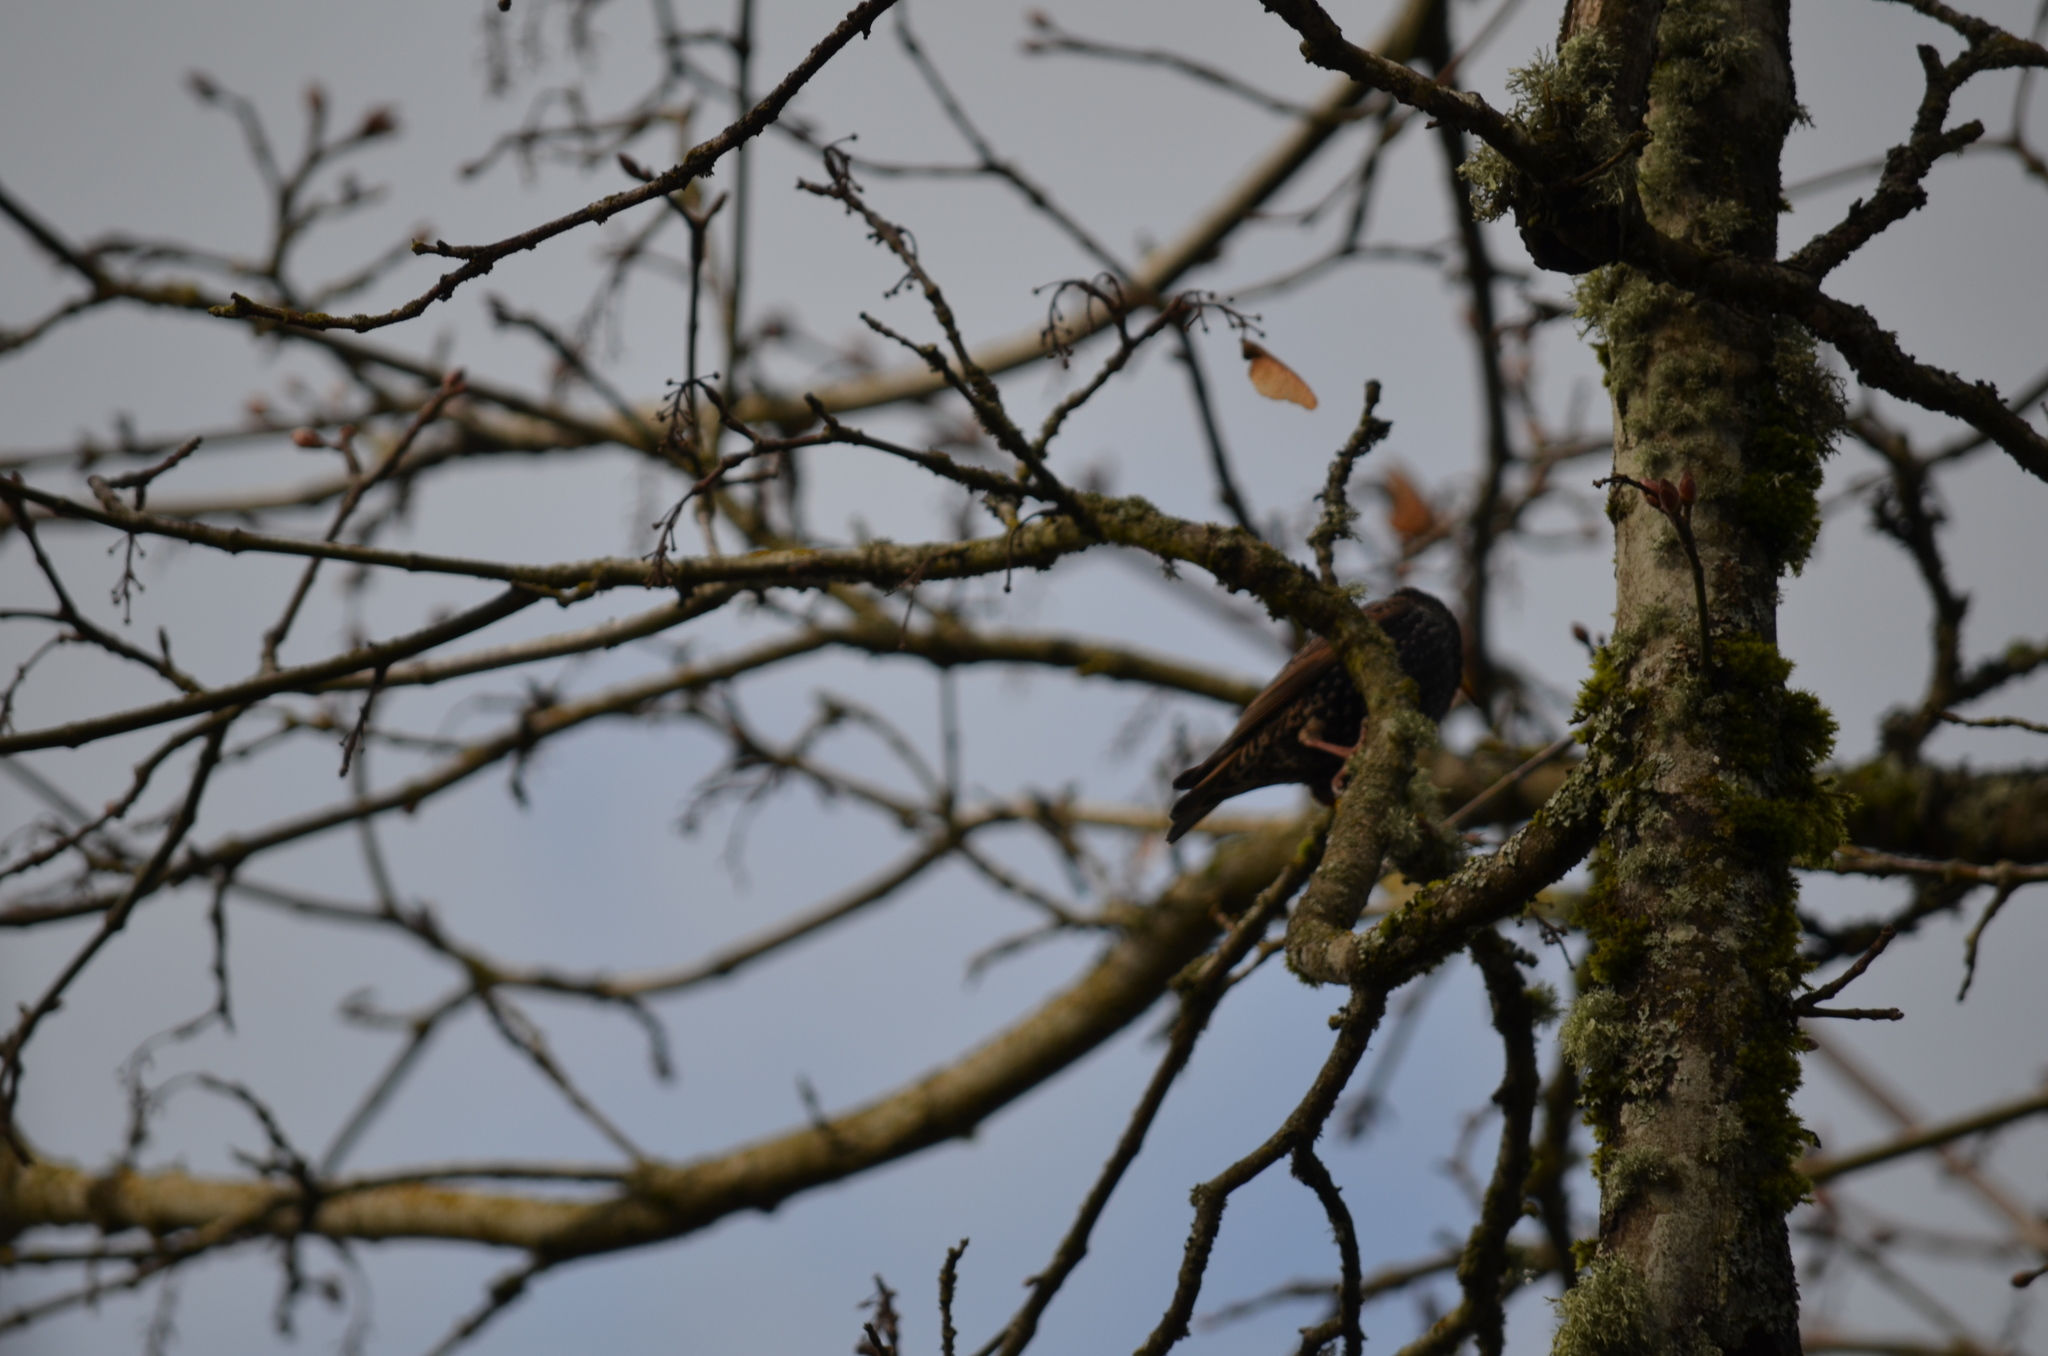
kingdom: Animalia
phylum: Chordata
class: Aves
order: Passeriformes
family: Sturnidae
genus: Sturnus
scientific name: Sturnus vulgaris
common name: Common starling
